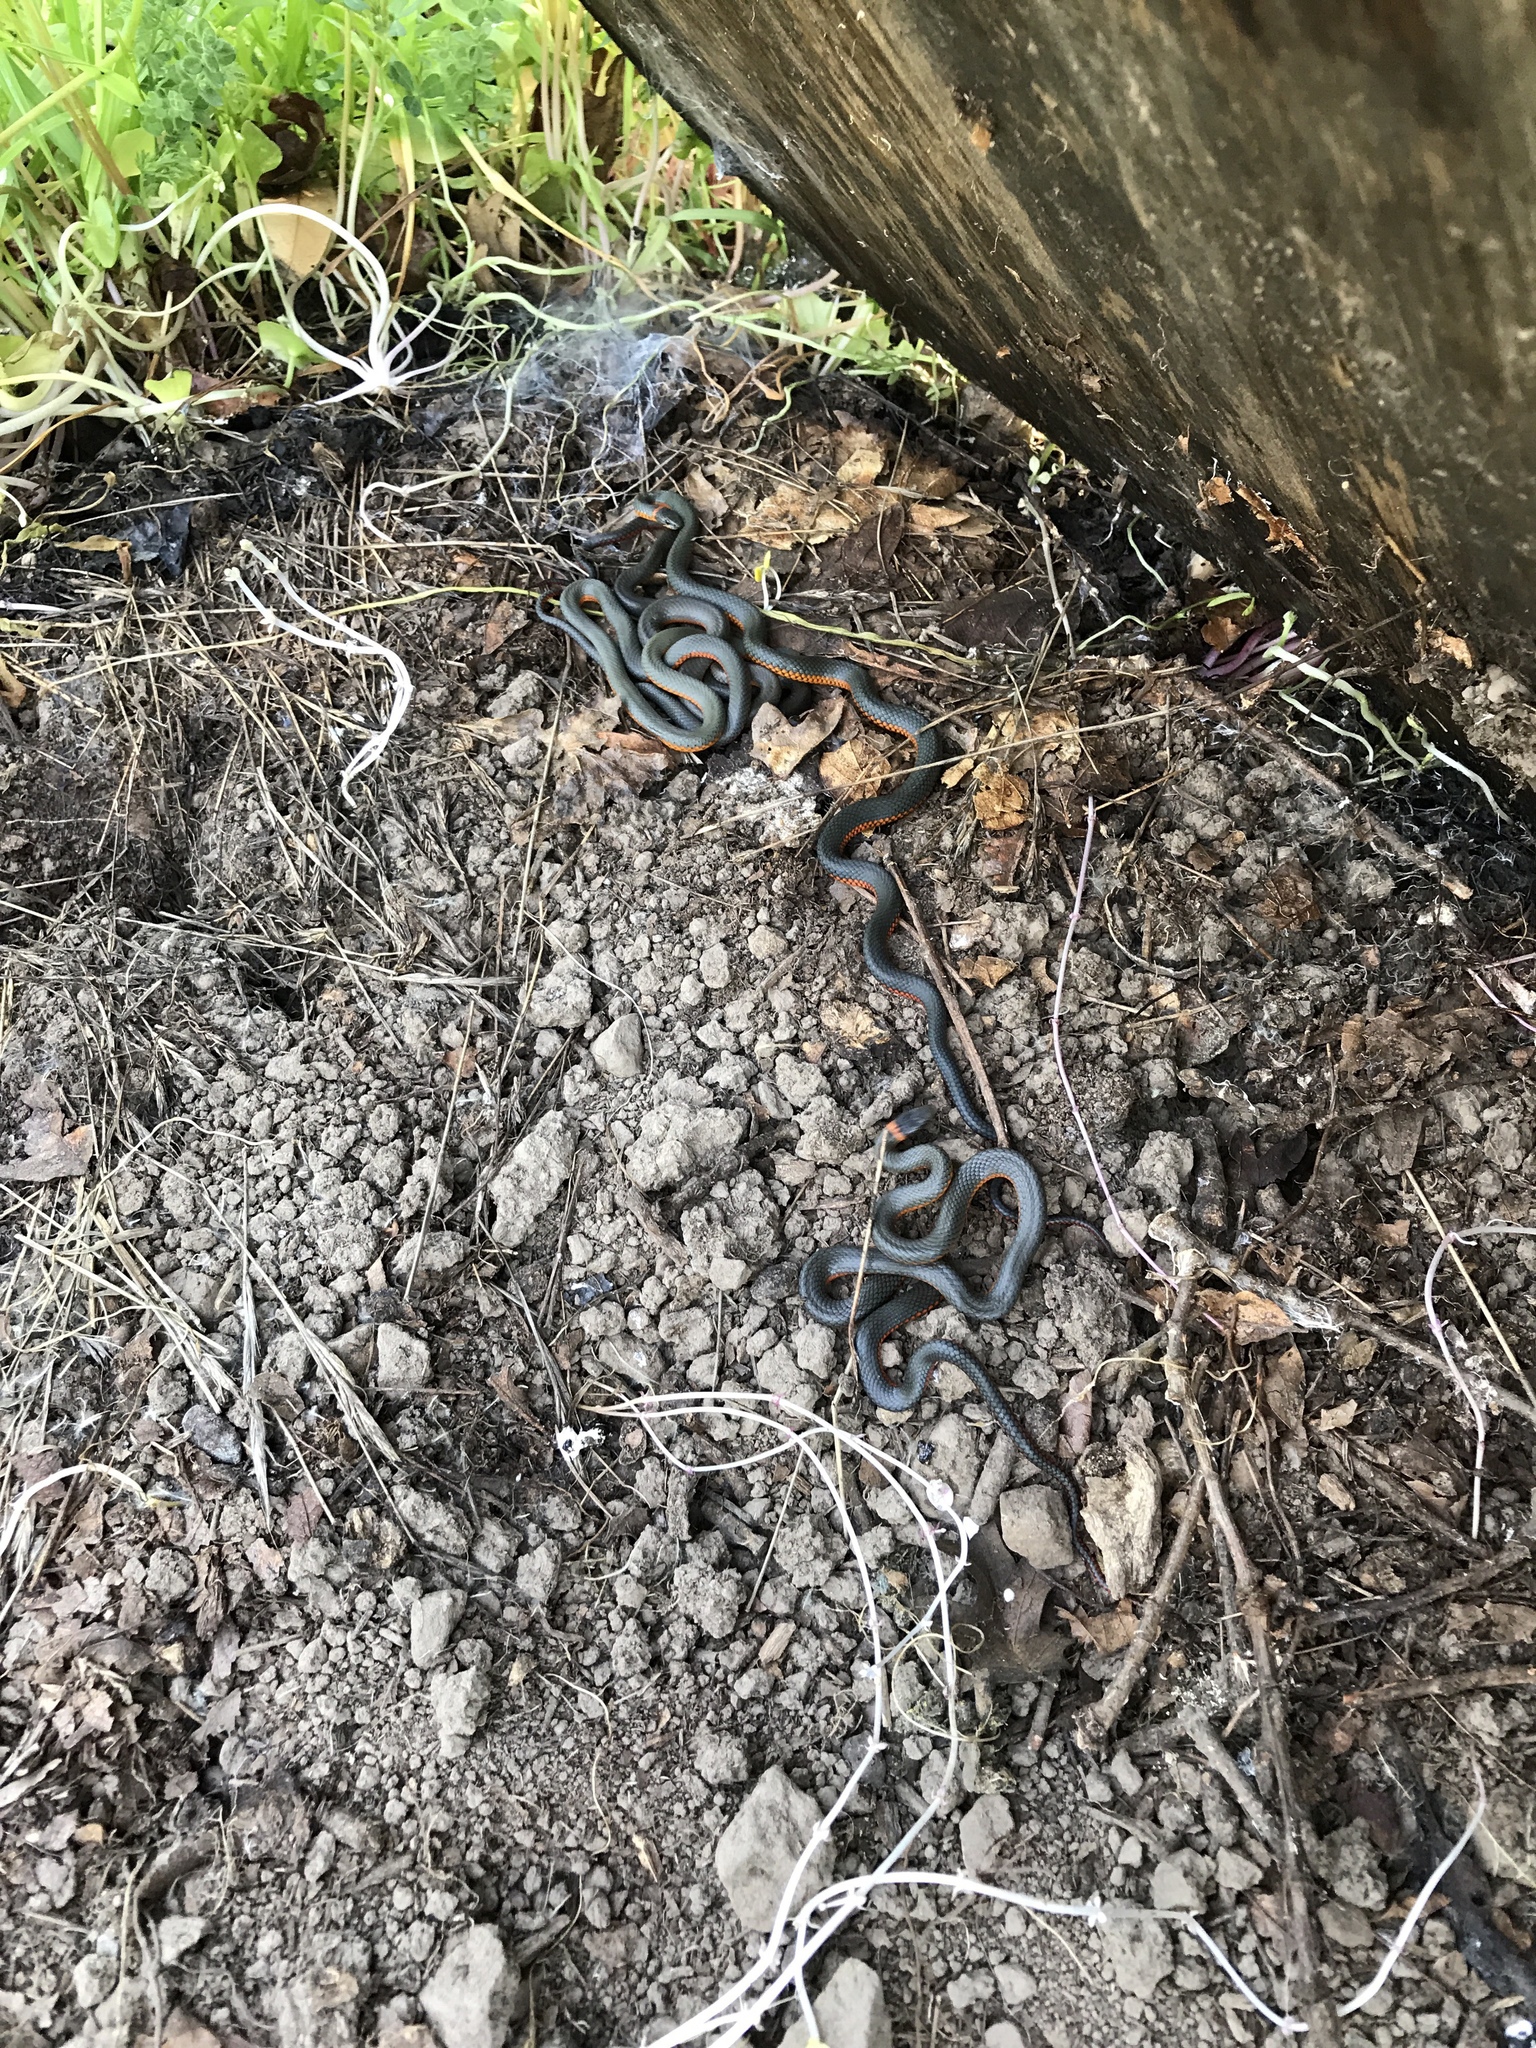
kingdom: Animalia
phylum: Chordata
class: Squamata
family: Colubridae
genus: Diadophis
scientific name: Diadophis punctatus
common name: Ringneck snake
